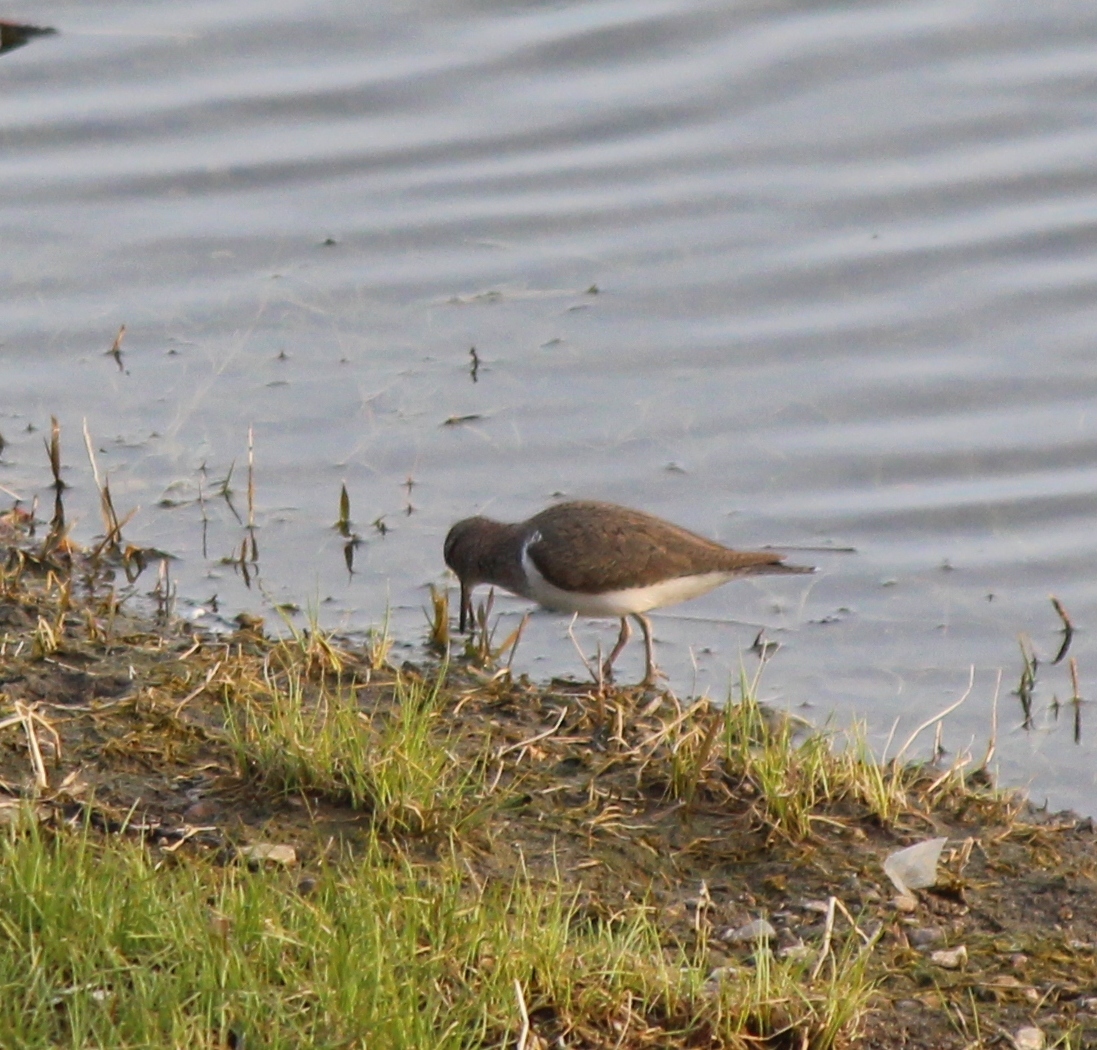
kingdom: Animalia
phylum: Chordata
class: Aves
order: Charadriiformes
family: Scolopacidae
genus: Actitis
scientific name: Actitis hypoleucos
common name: Common sandpiper
